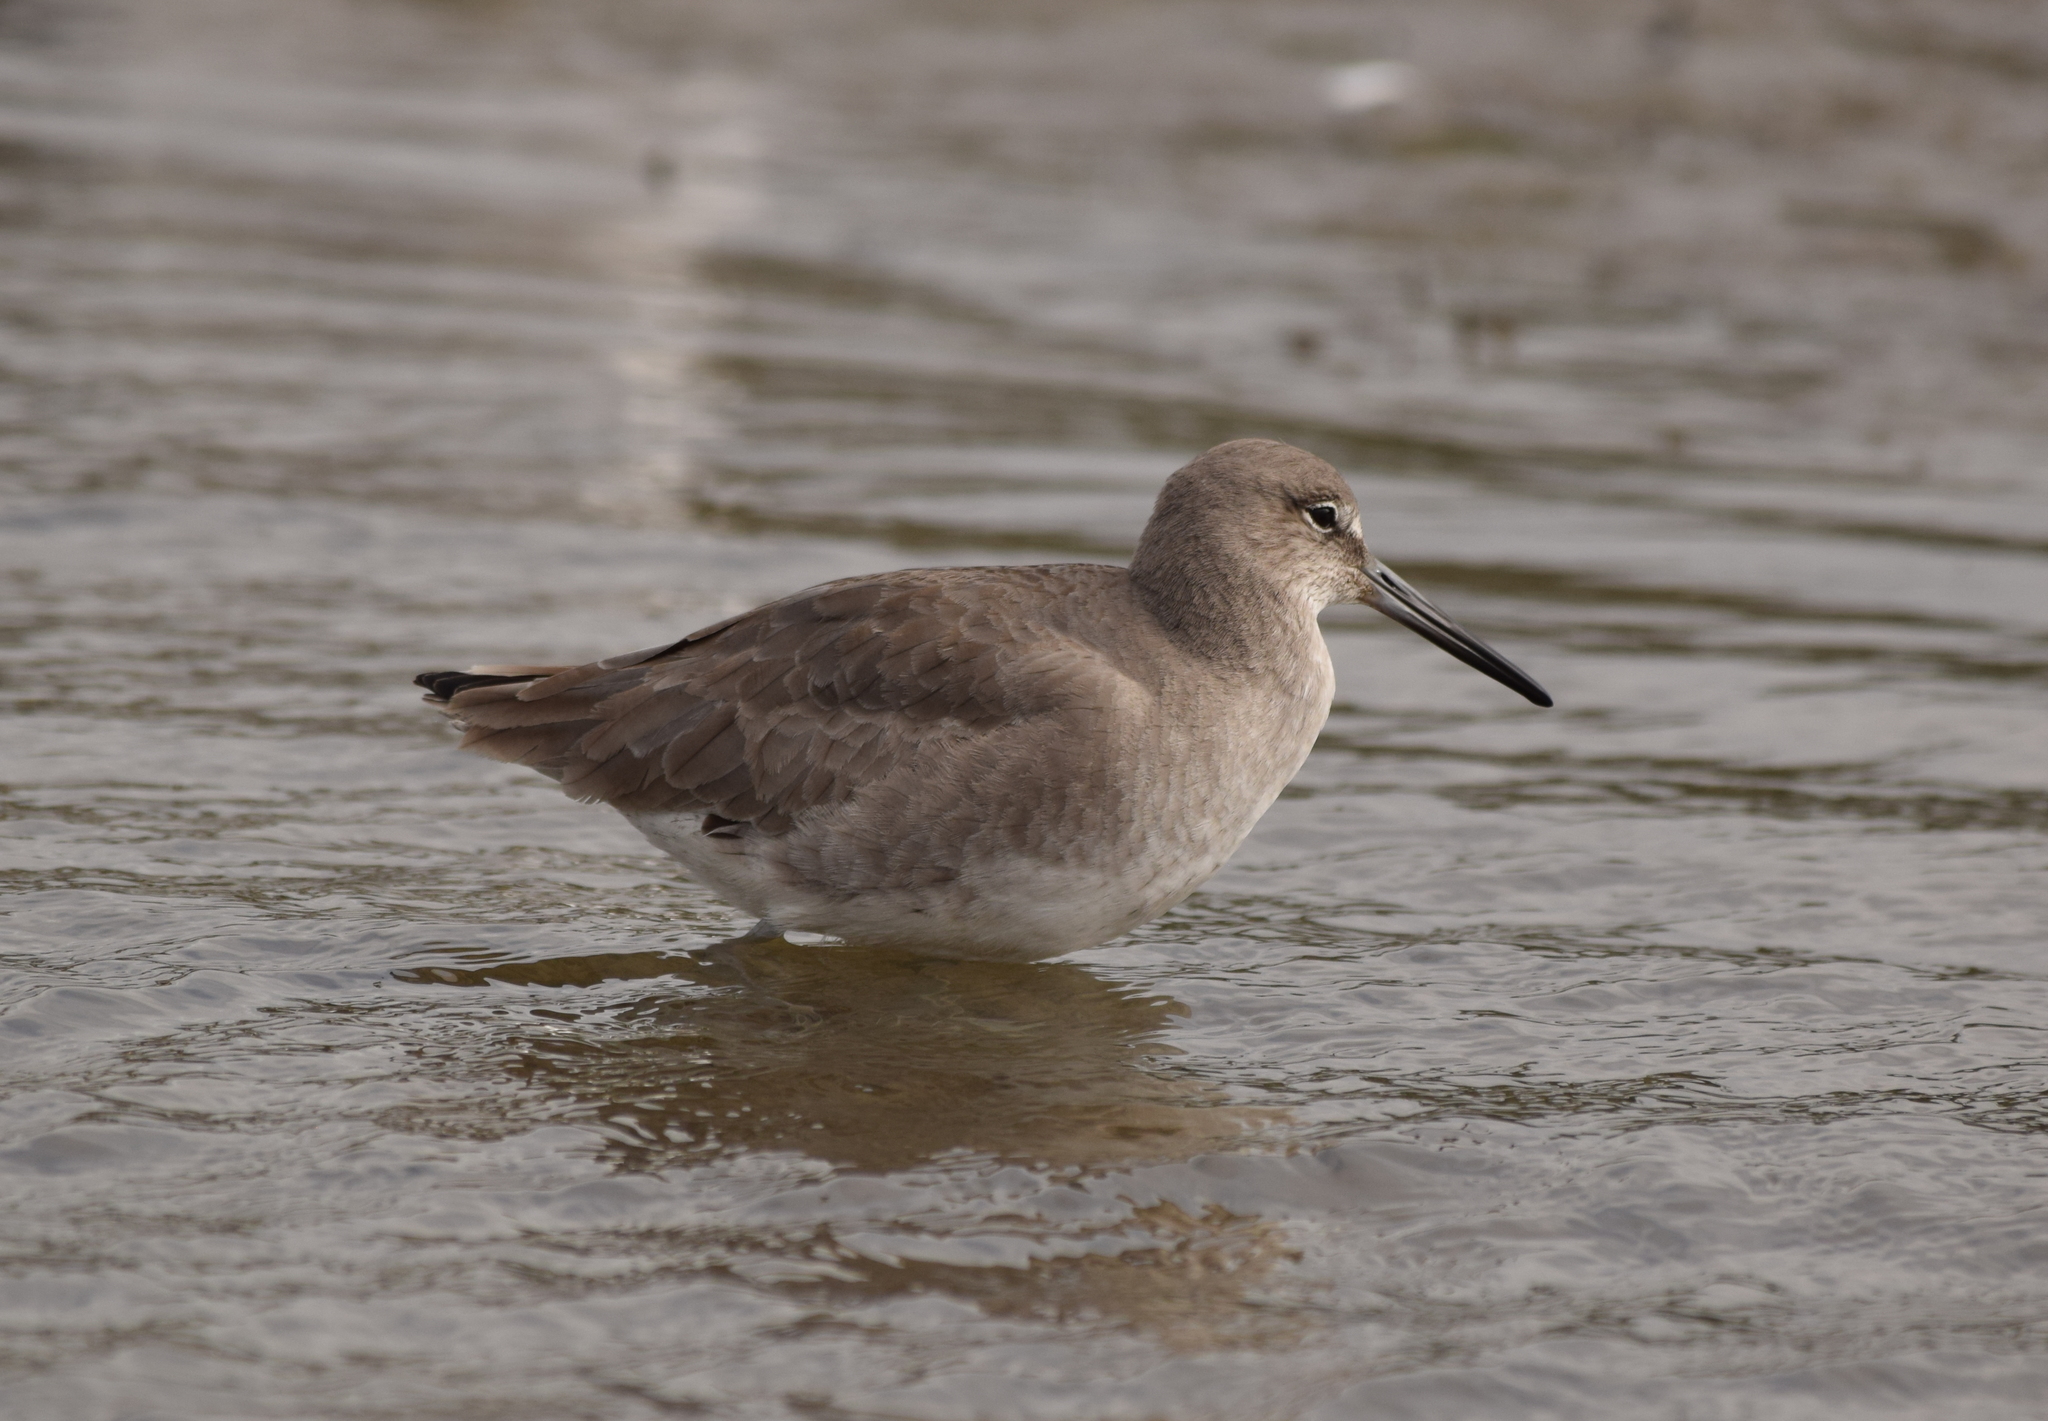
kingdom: Animalia
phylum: Chordata
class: Aves
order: Charadriiformes
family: Scolopacidae
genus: Tringa
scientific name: Tringa semipalmata
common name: Willet
